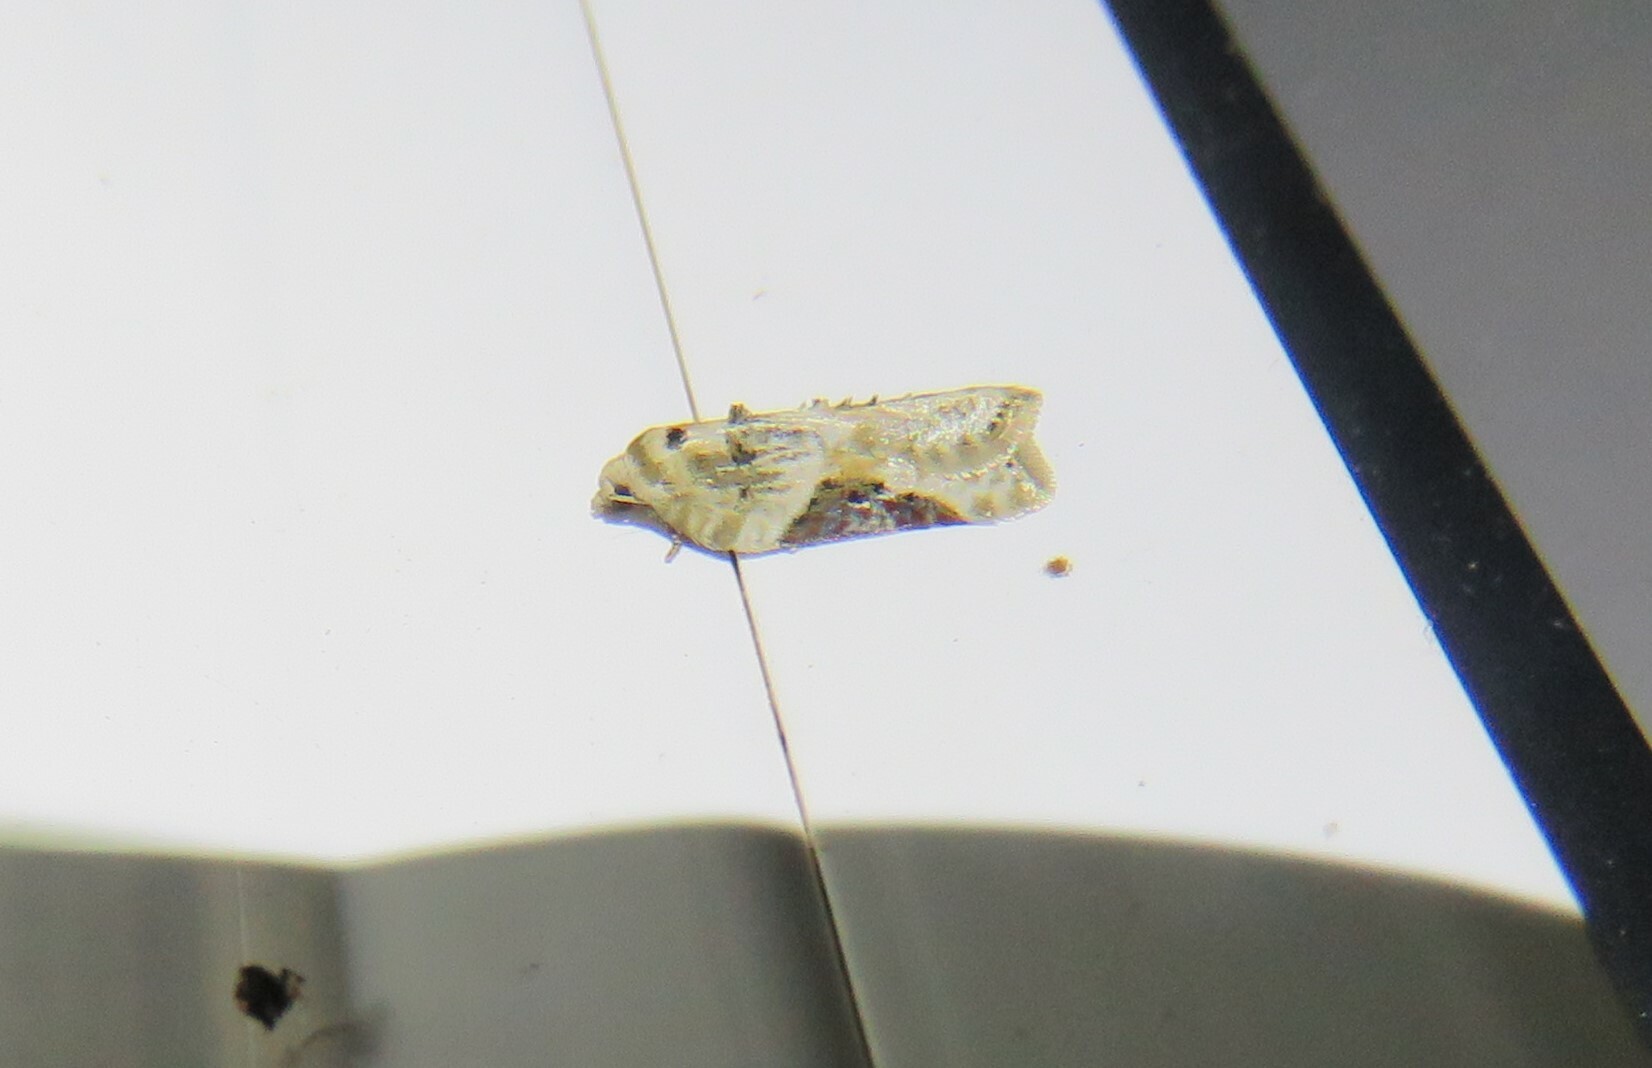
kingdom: Animalia
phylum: Arthropoda
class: Insecta
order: Lepidoptera
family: Tortricidae
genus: Acleris
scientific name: Acleris forbesana
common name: Forbes' acleris moth
